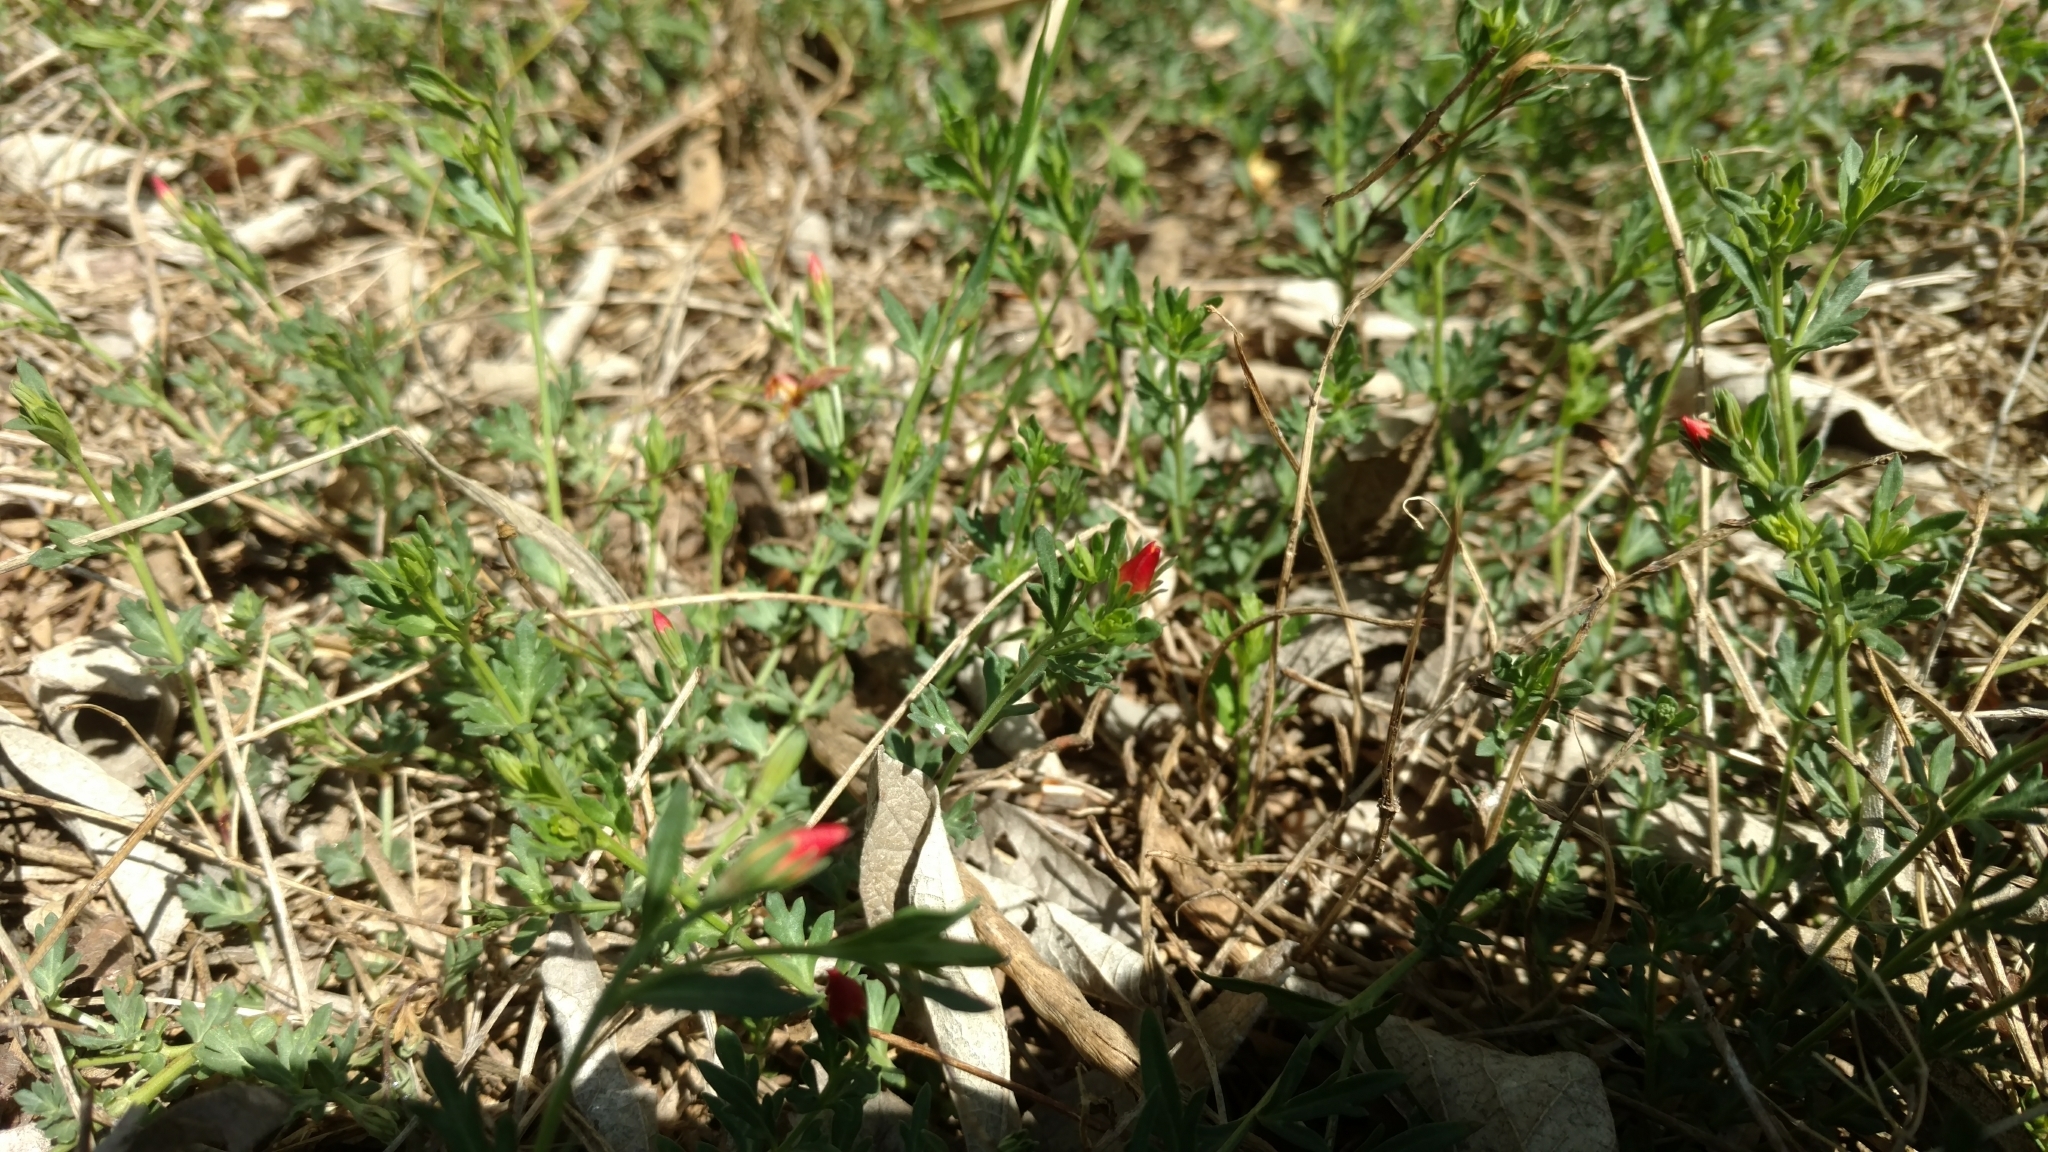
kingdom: Plantae
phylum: Tracheophyta
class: Magnoliopsida
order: Lamiales
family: Oleaceae
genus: Menodora
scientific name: Menodora heterophylla
